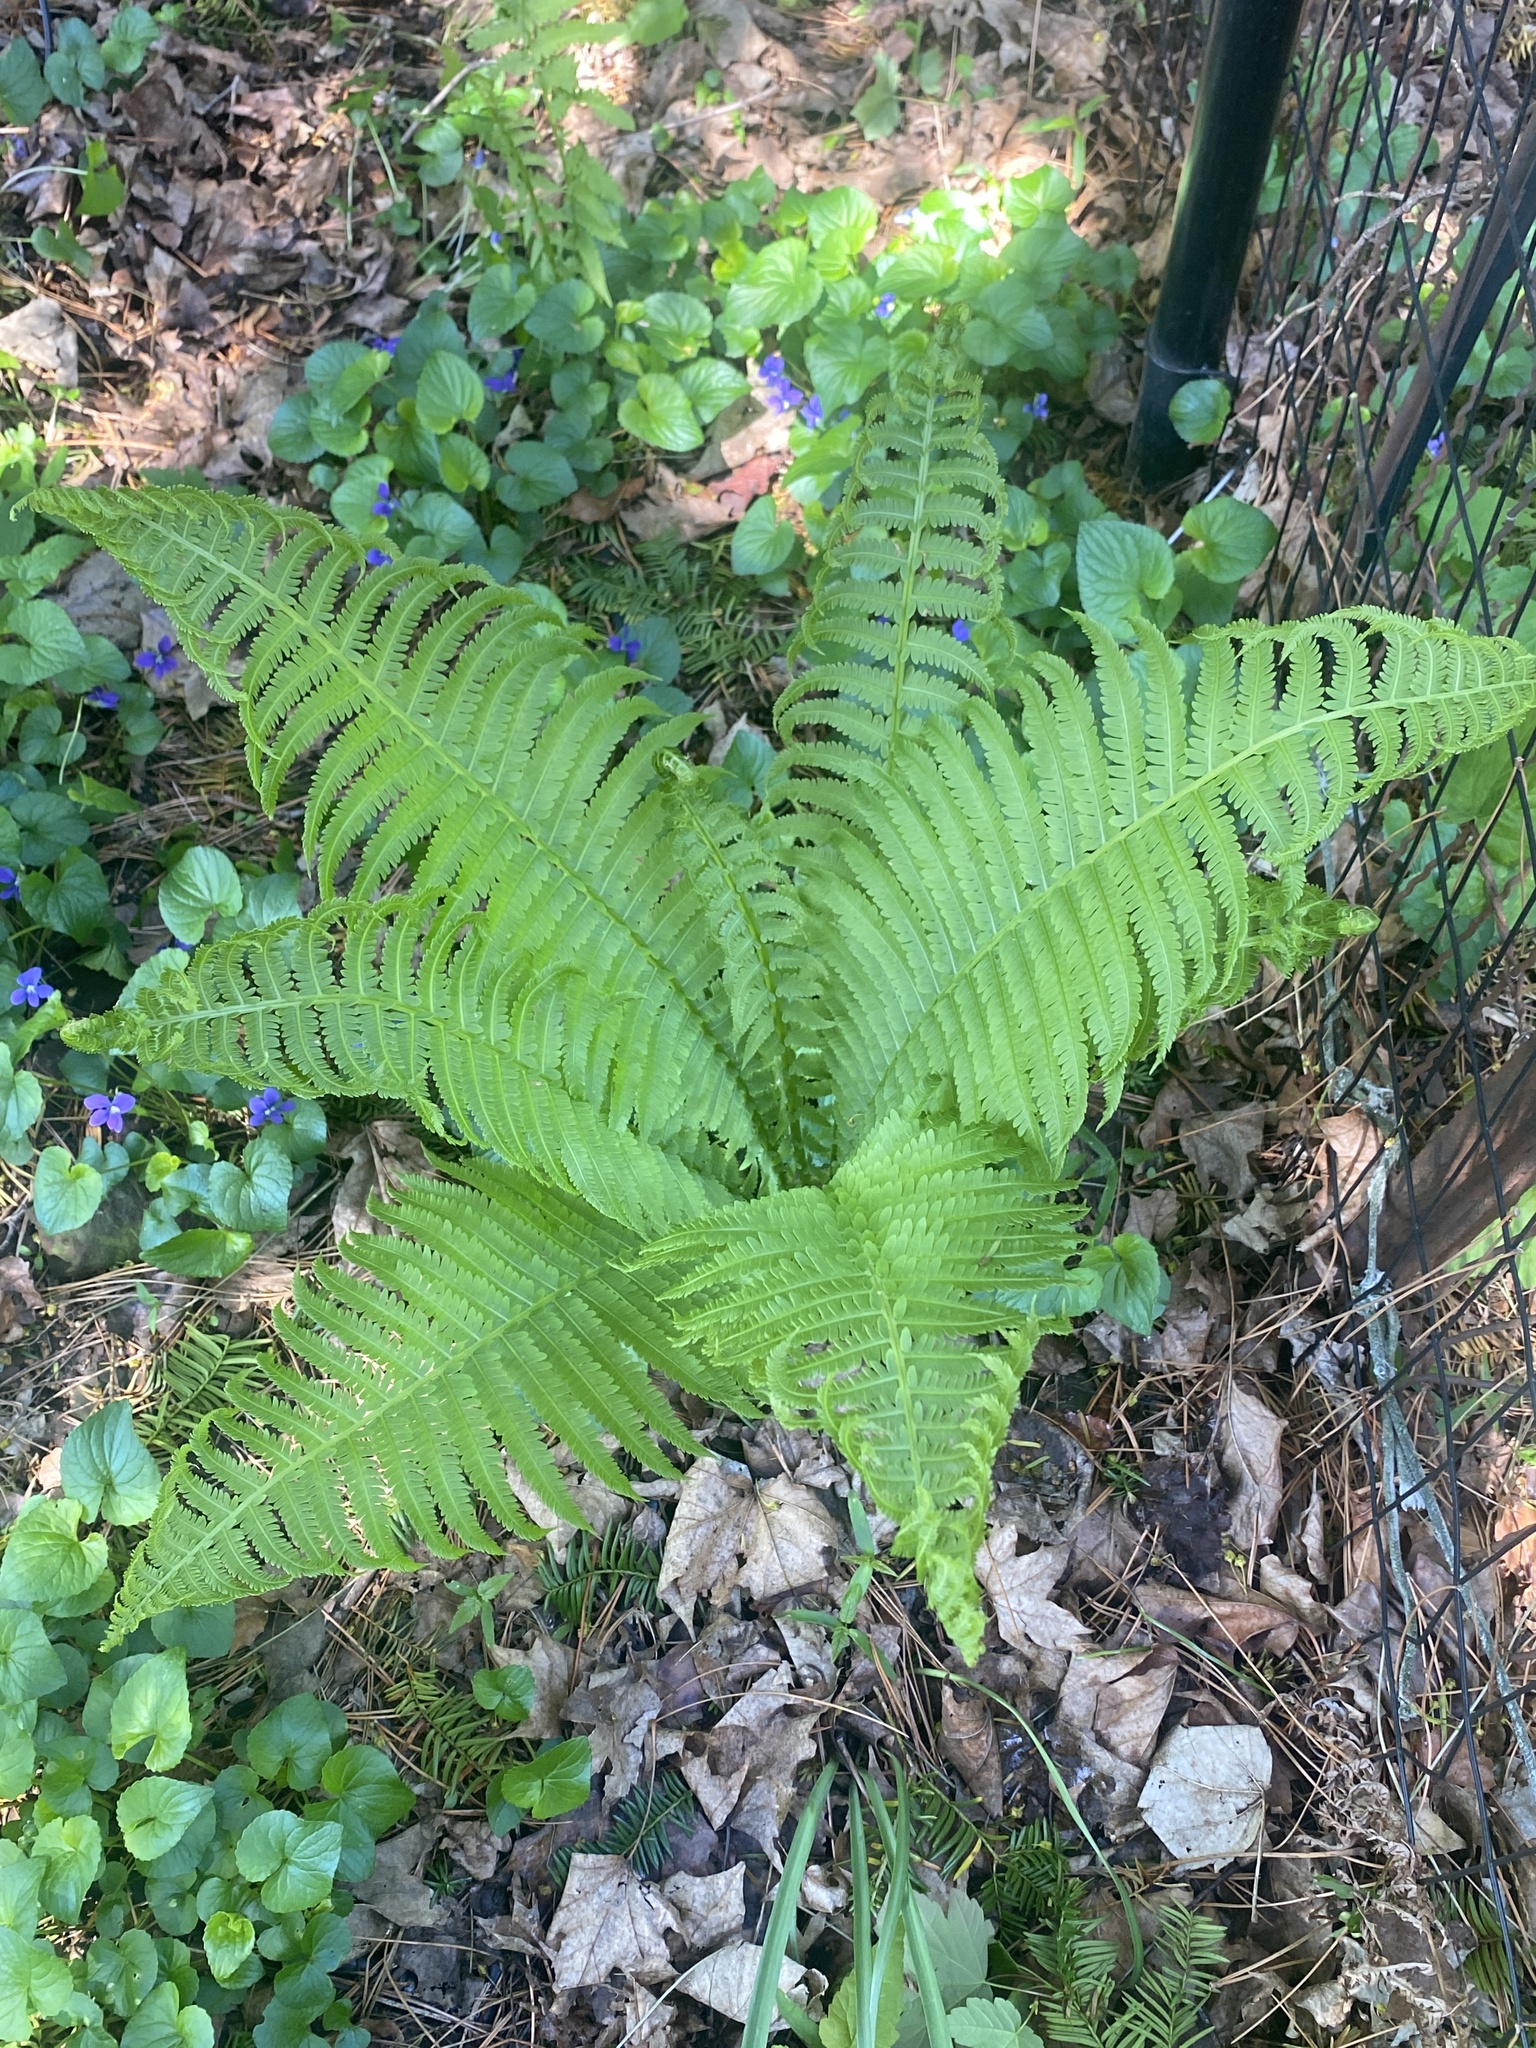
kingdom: Plantae
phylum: Tracheophyta
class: Polypodiopsida
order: Polypodiales
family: Onocleaceae
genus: Matteuccia
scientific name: Matteuccia struthiopteris
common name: Ostrich fern
